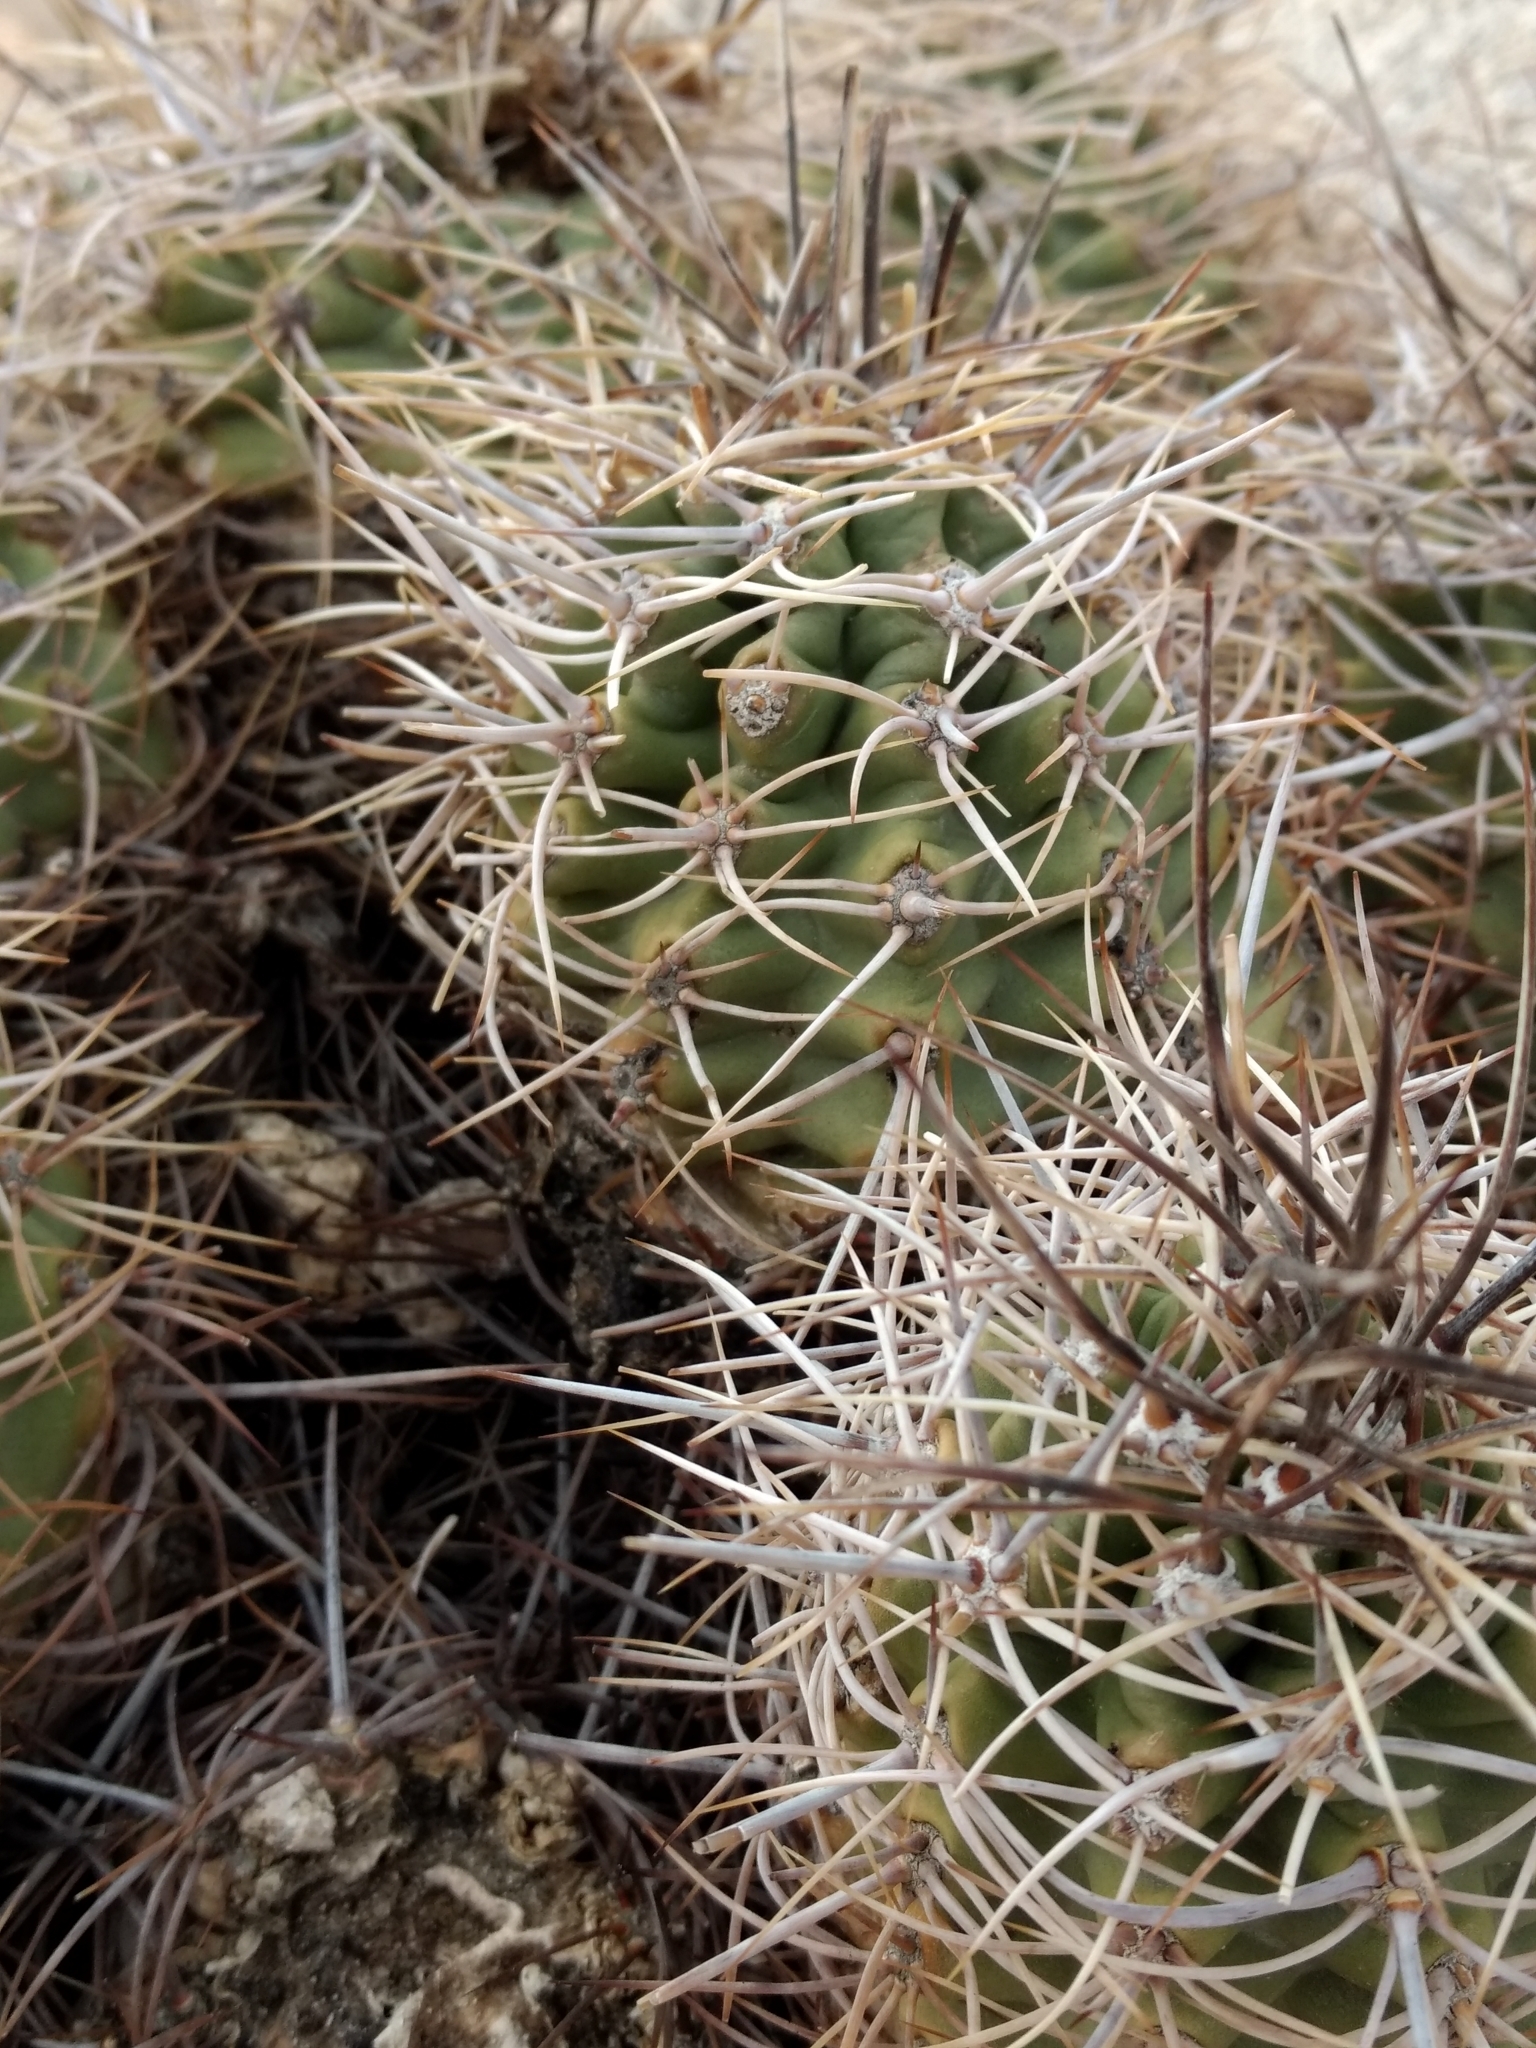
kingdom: Plantae
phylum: Tracheophyta
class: Magnoliopsida
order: Caryophyllales
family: Cactaceae
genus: Echinocereus
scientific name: Echinocereus triglochidiatus
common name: Claretcup hedgehog
